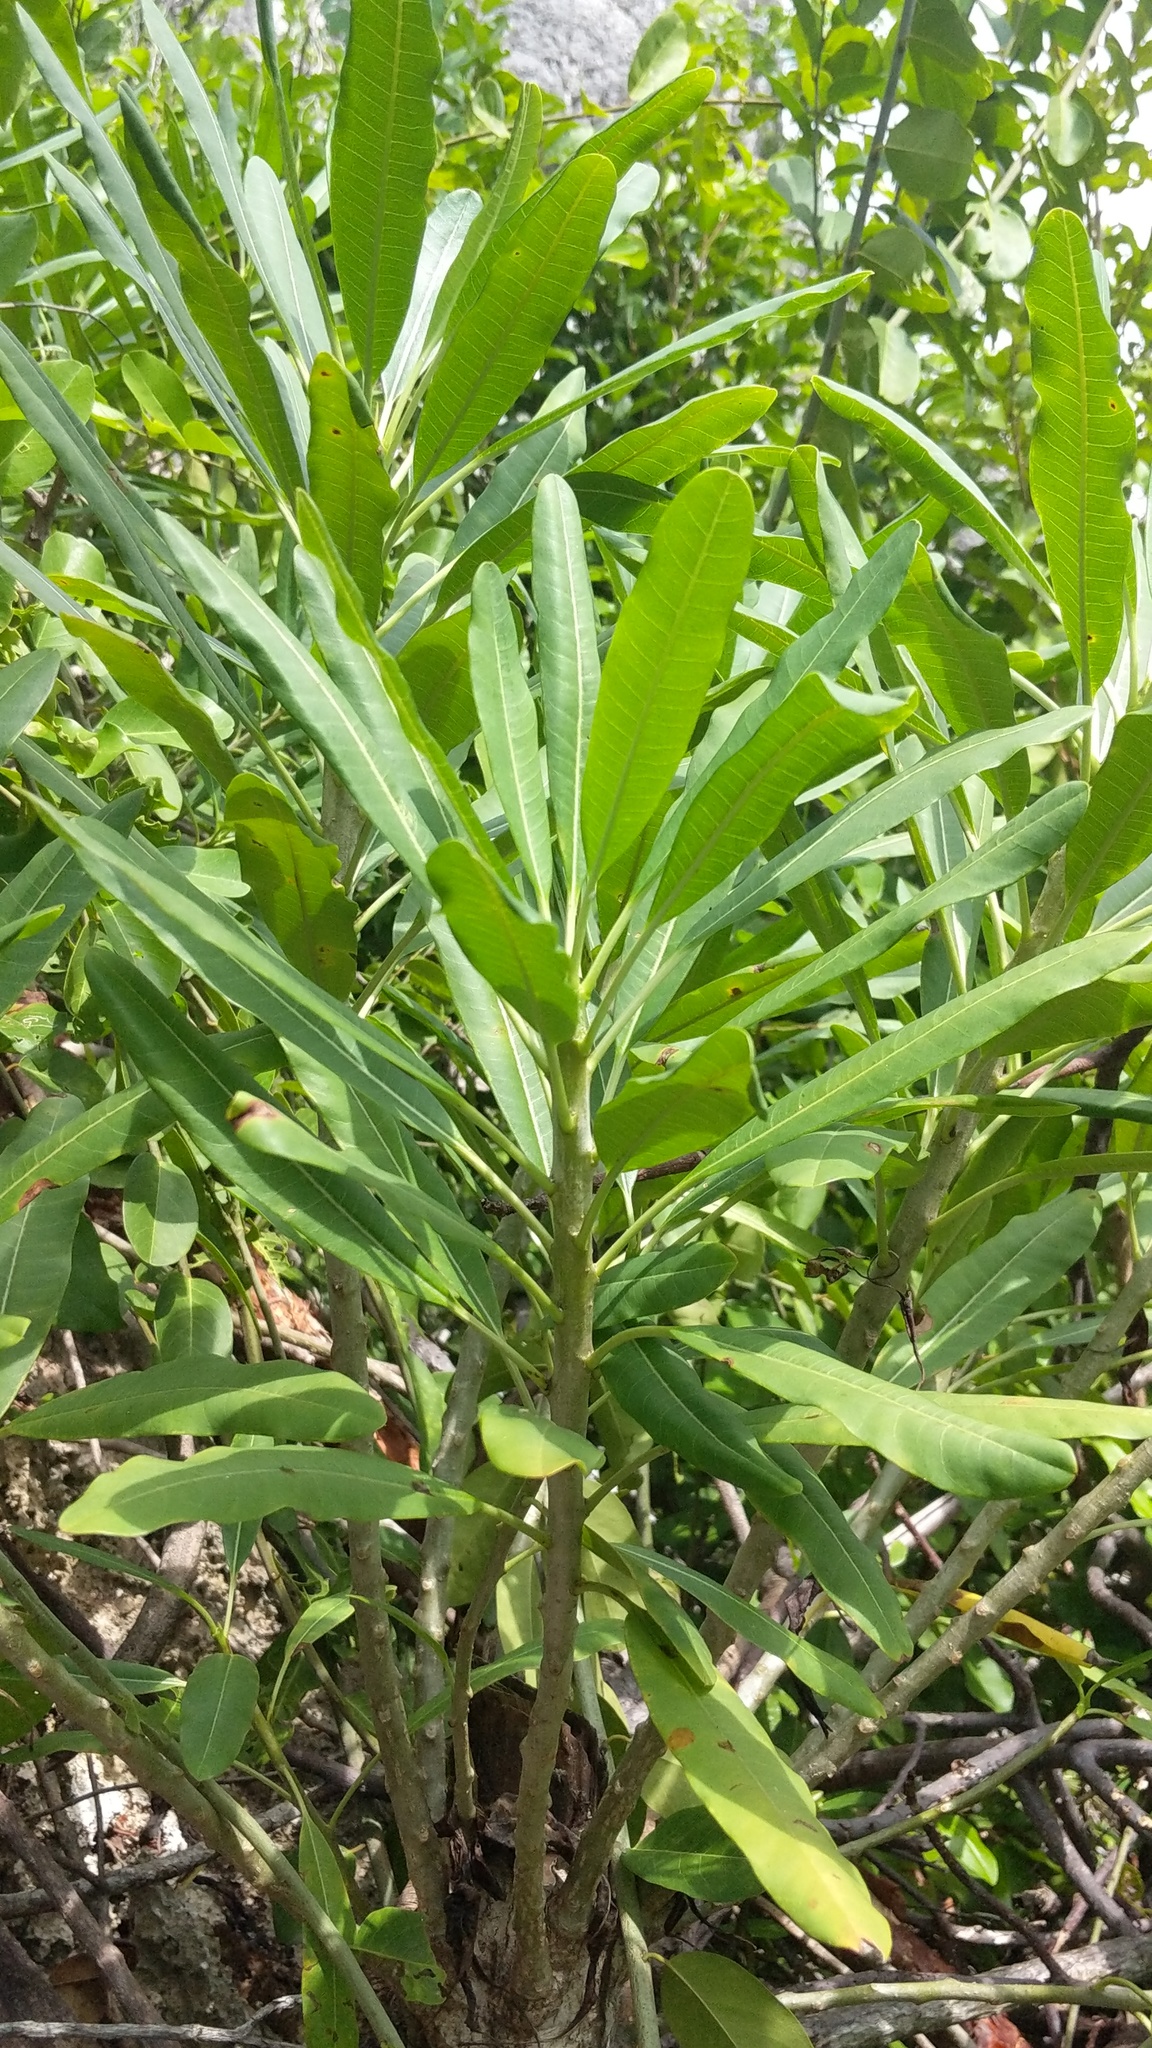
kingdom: Plantae
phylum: Tracheophyta
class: Magnoliopsida
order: Gentianales
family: Apocynaceae
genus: Plumeria
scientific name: Plumeria obtusa
